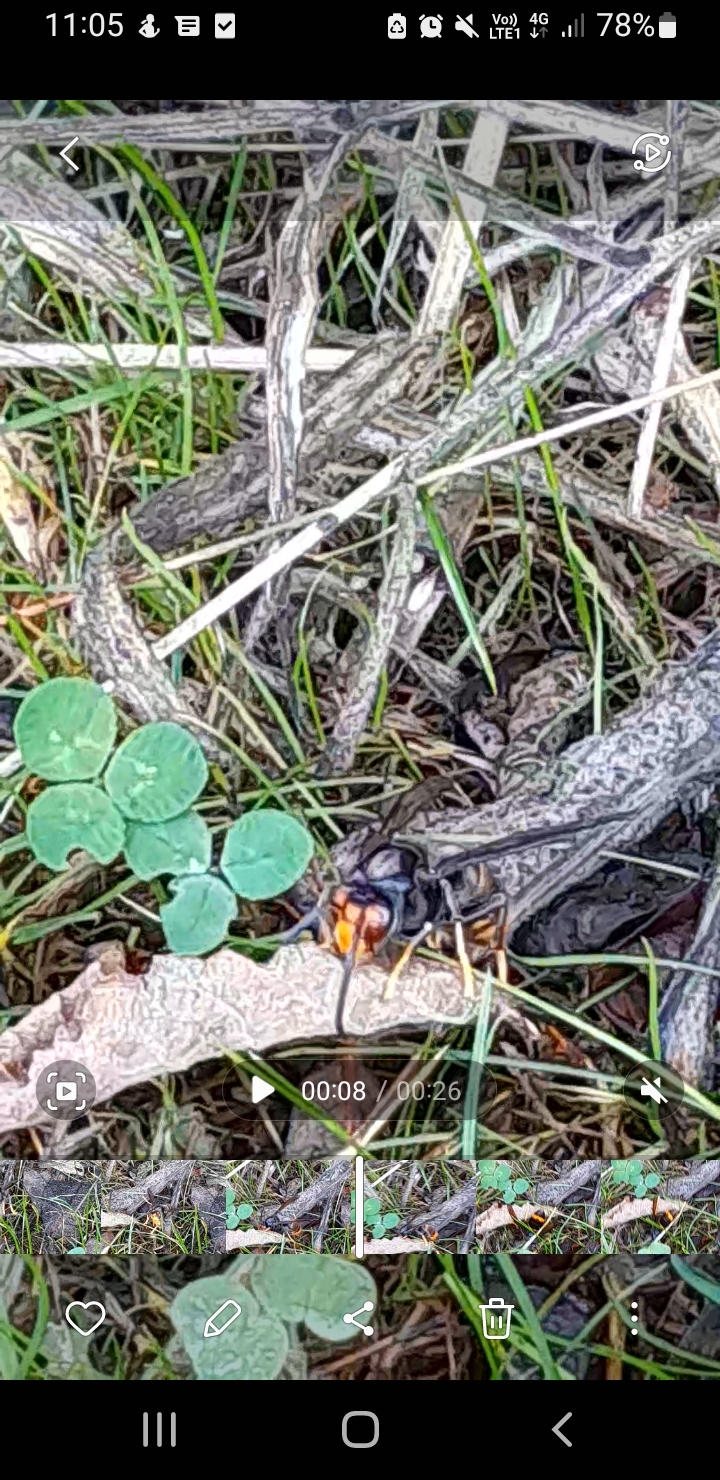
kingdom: Animalia
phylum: Arthropoda
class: Insecta
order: Hymenoptera
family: Vespidae
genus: Vespa
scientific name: Vespa velutina
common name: Asian hornet
